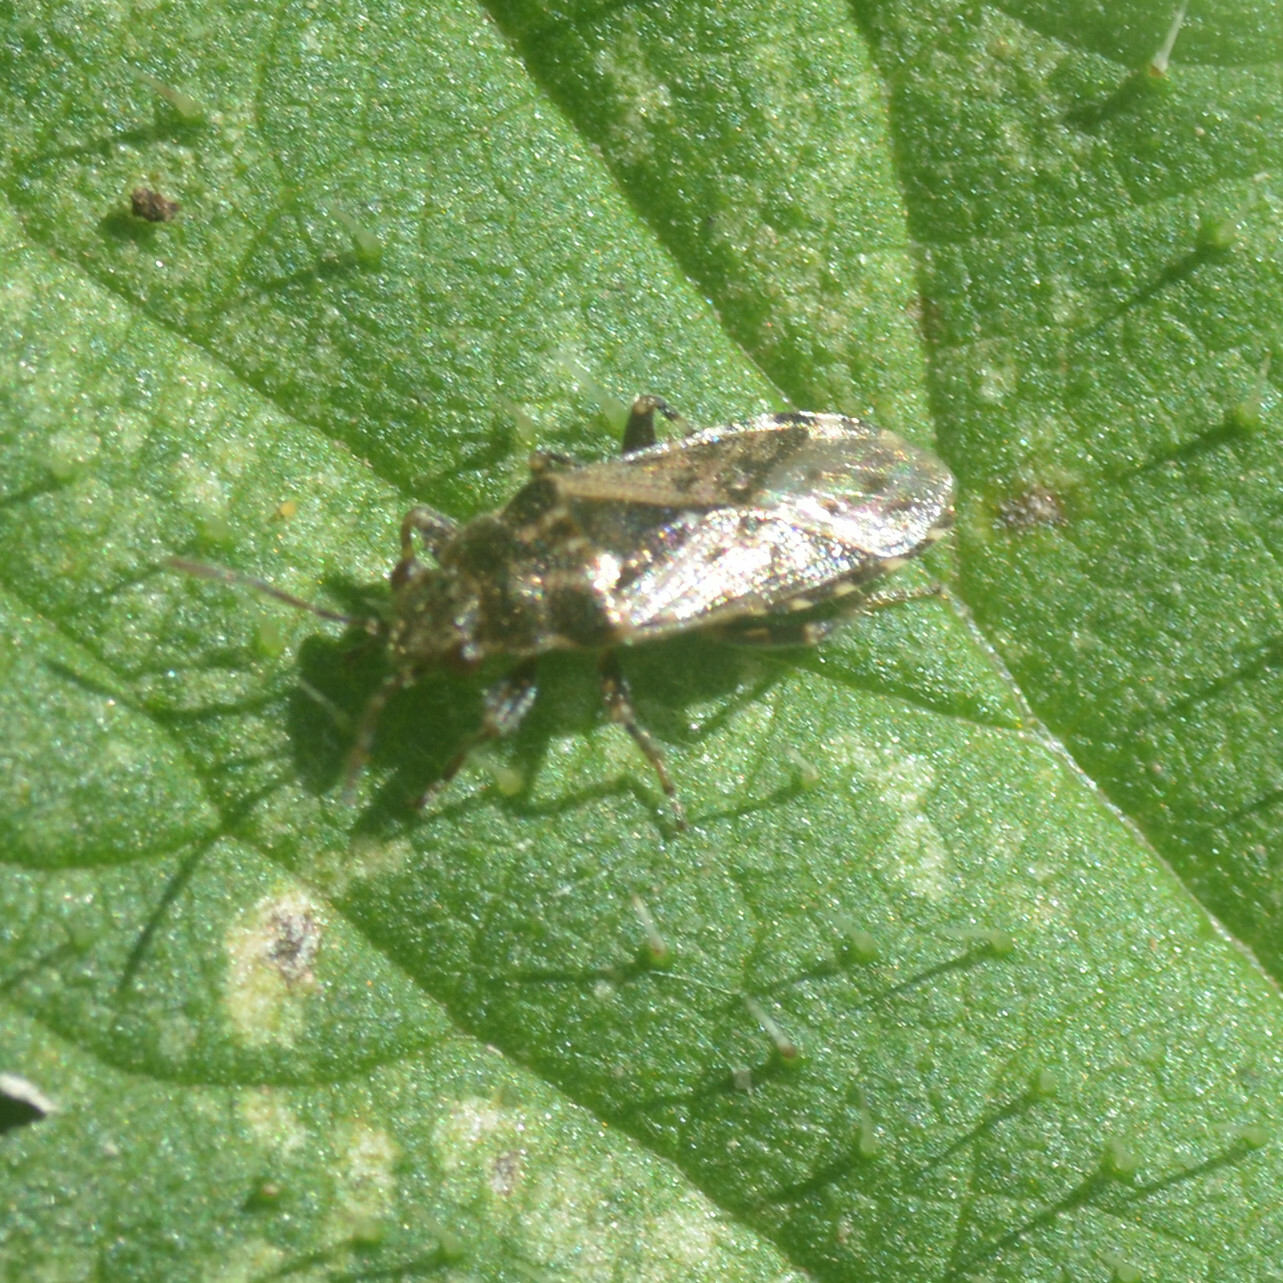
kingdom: Animalia
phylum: Arthropoda
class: Insecta
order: Hemiptera
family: Heterogastridae
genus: Heterogaster
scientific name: Heterogaster urticae
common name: Seed bug
